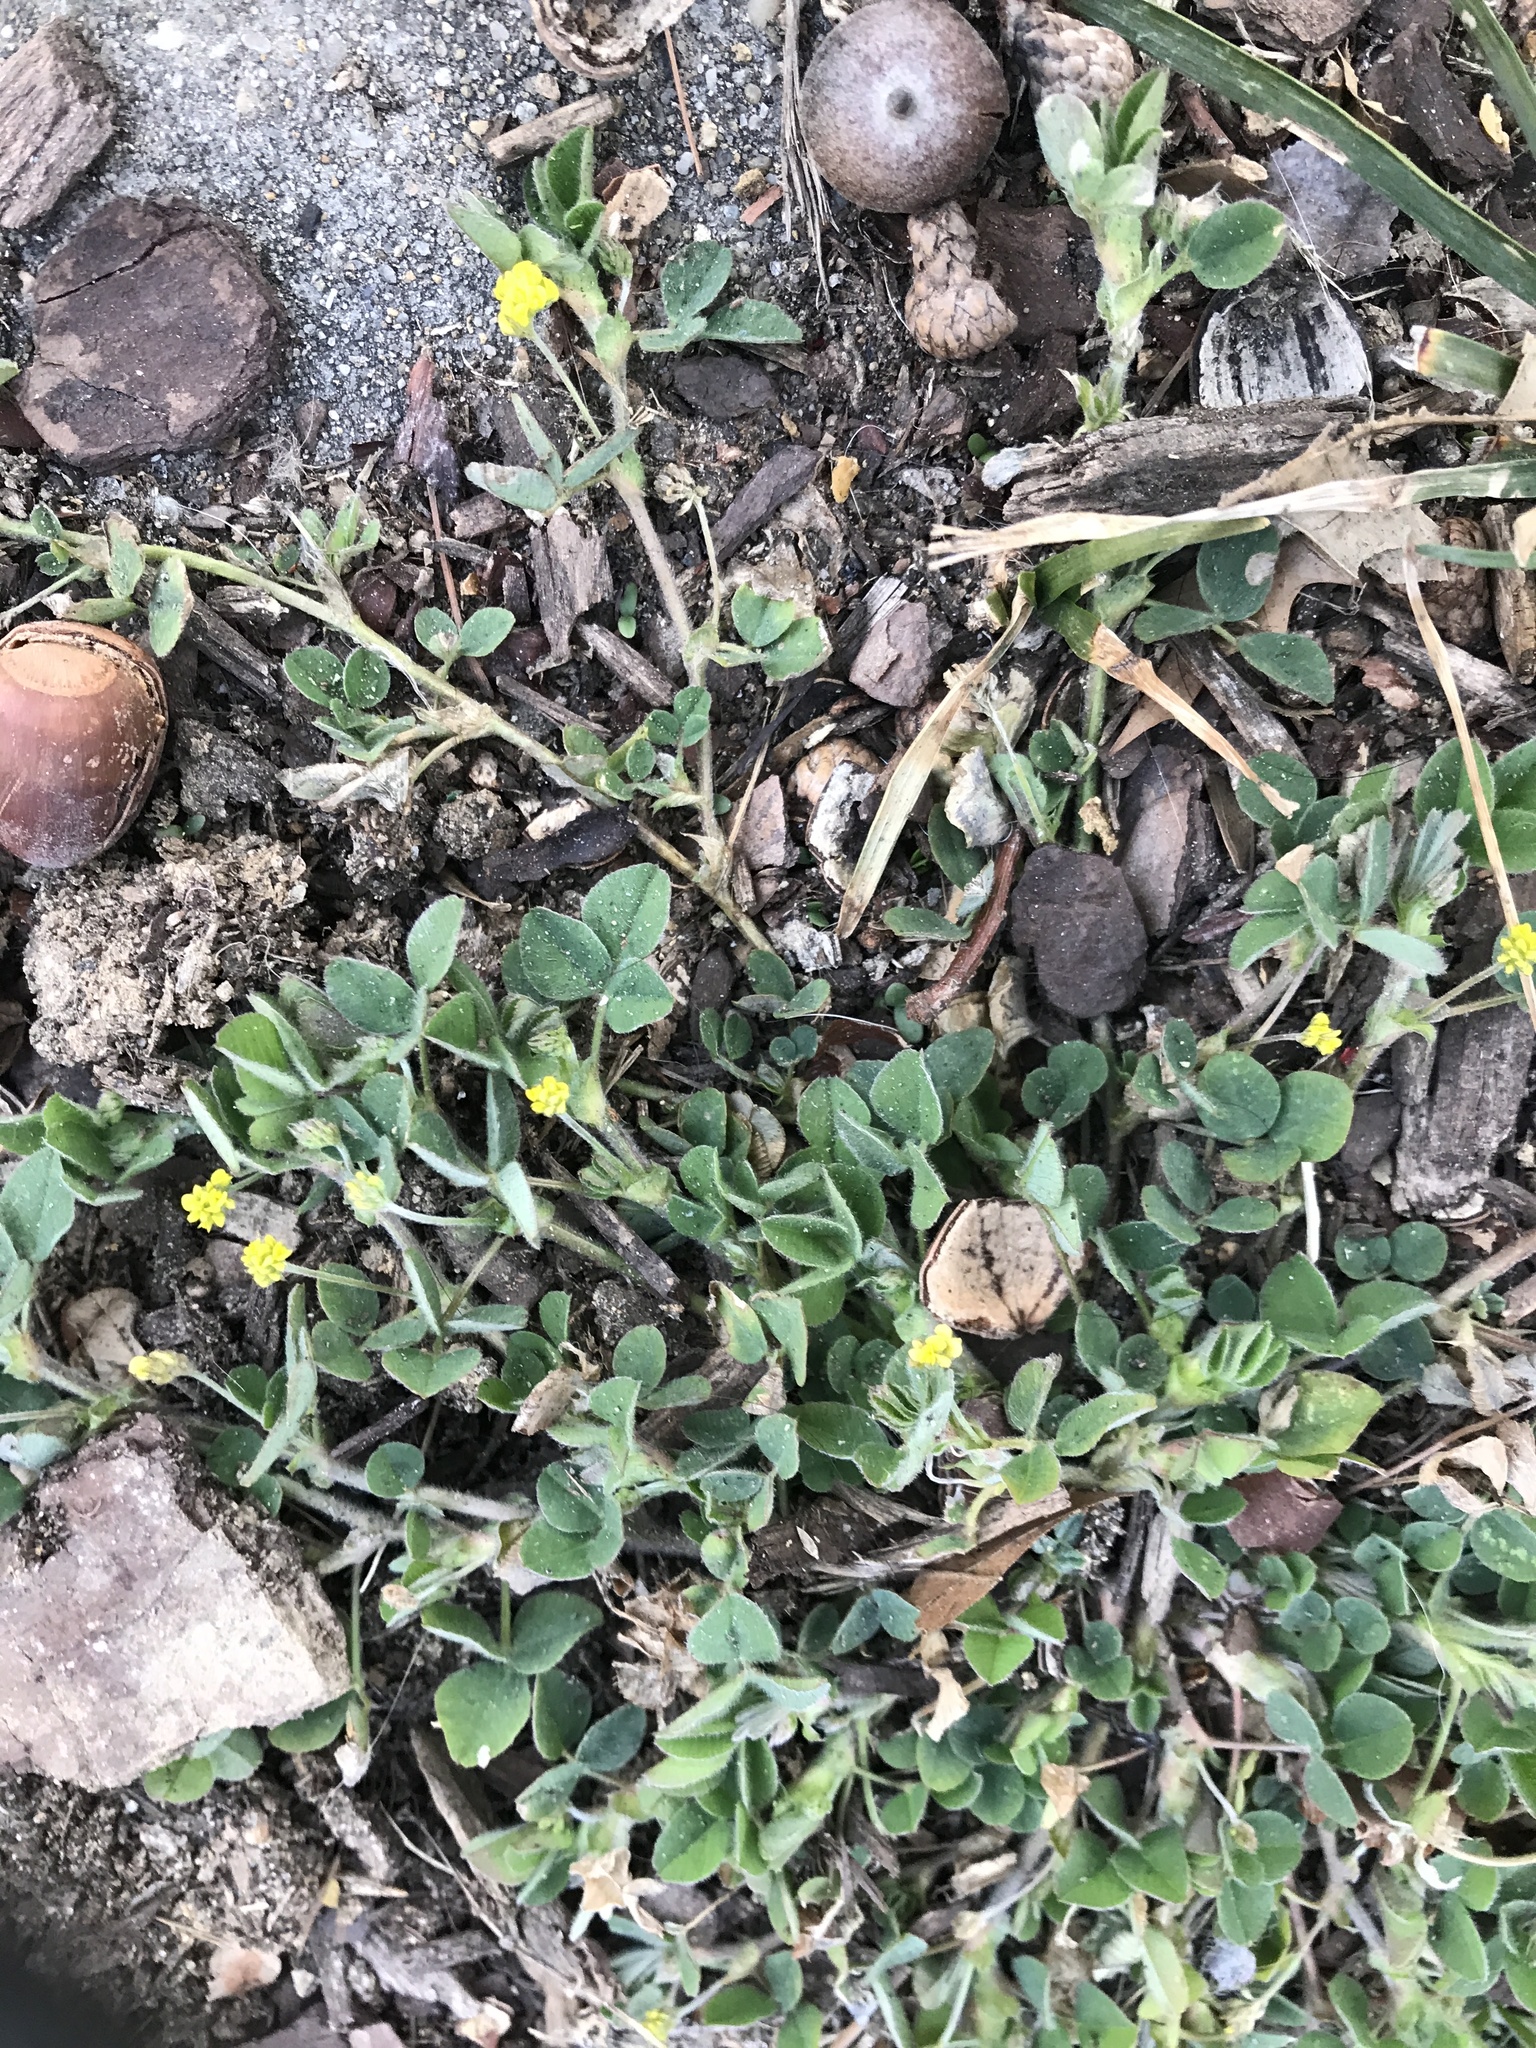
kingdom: Plantae
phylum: Tracheophyta
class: Magnoliopsida
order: Fabales
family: Fabaceae
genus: Medicago
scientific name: Medicago lupulina
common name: Black medick
